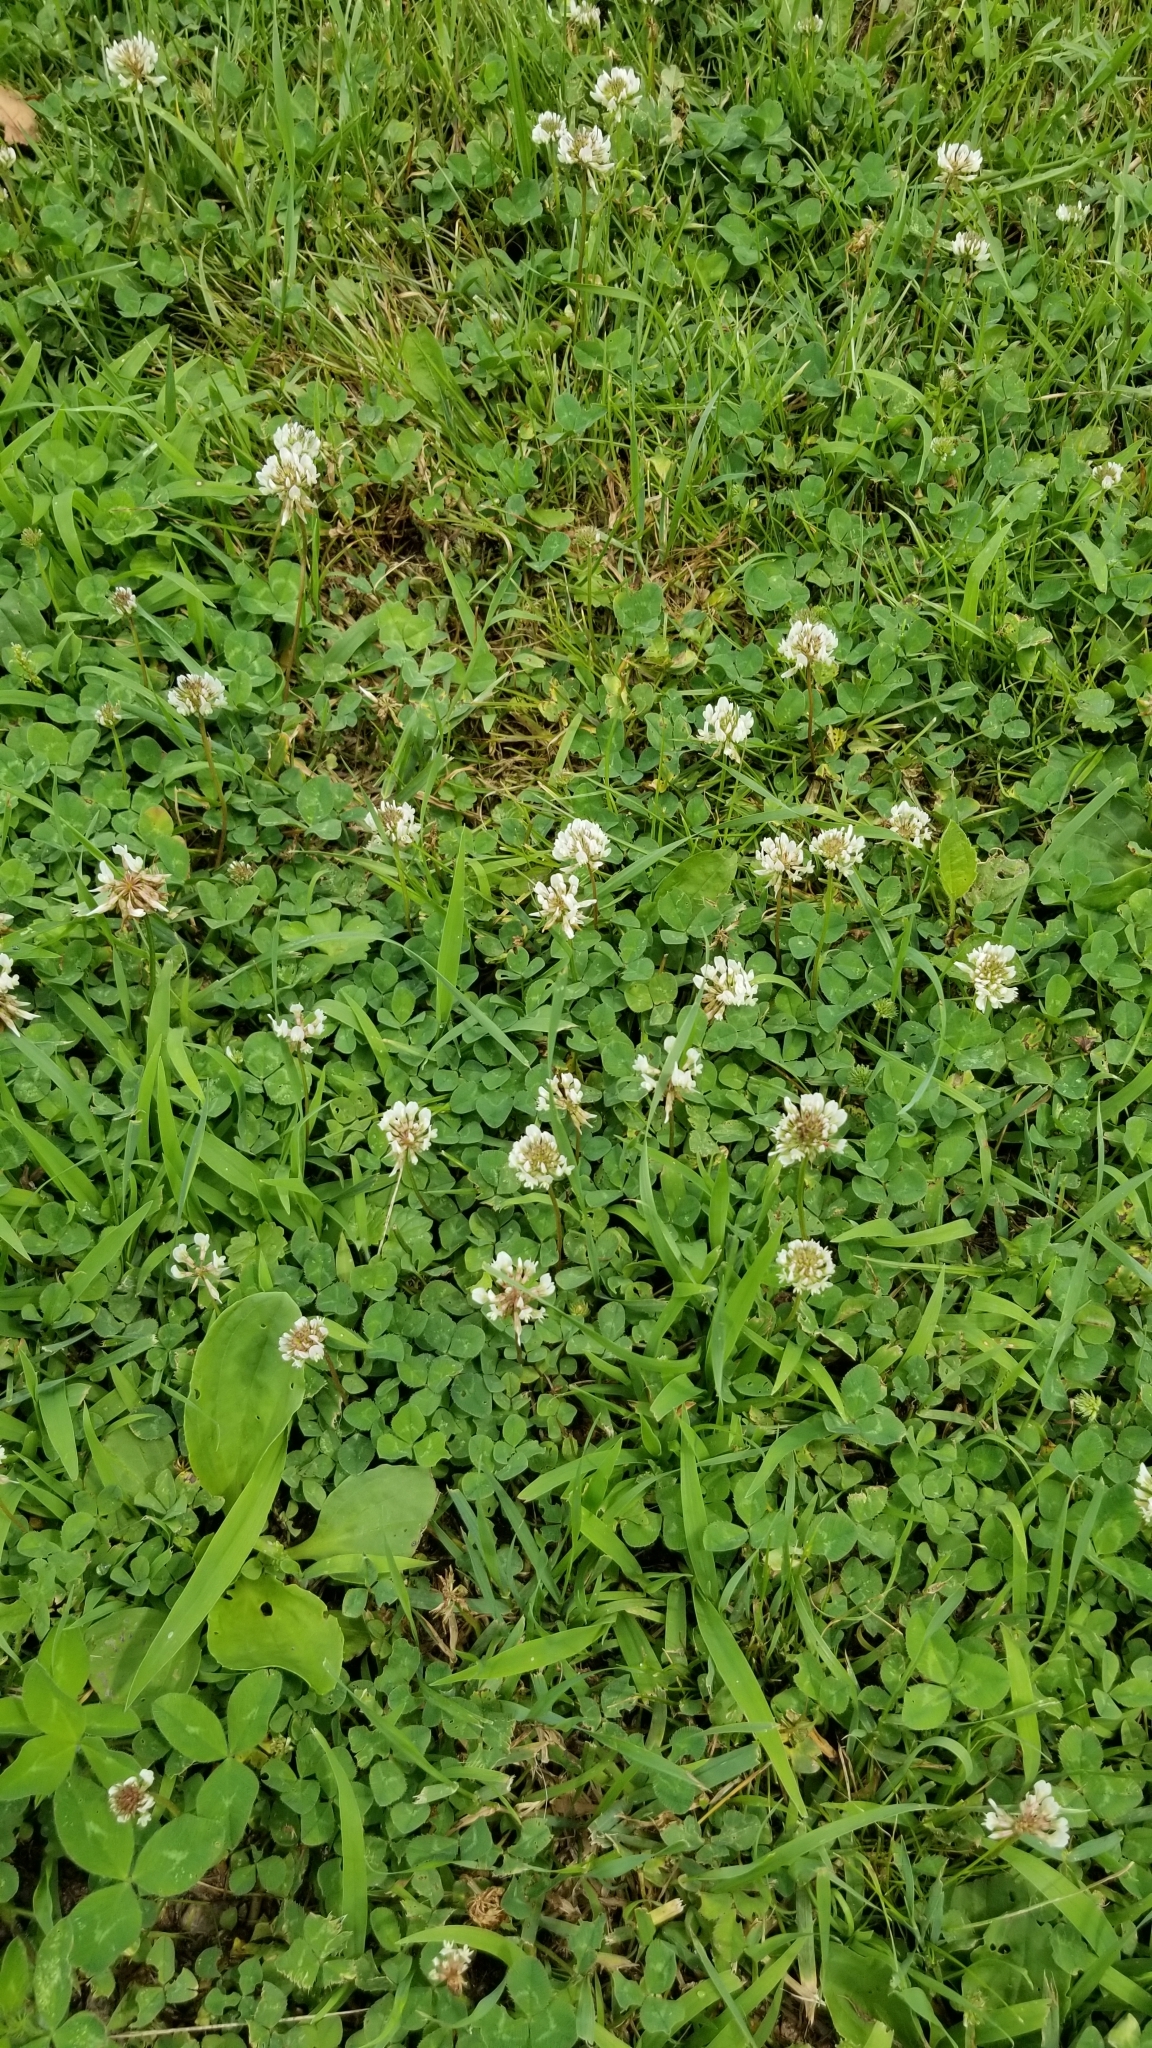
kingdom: Plantae
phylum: Tracheophyta
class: Magnoliopsida
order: Fabales
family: Fabaceae
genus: Trifolium
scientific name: Trifolium repens
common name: White clover
